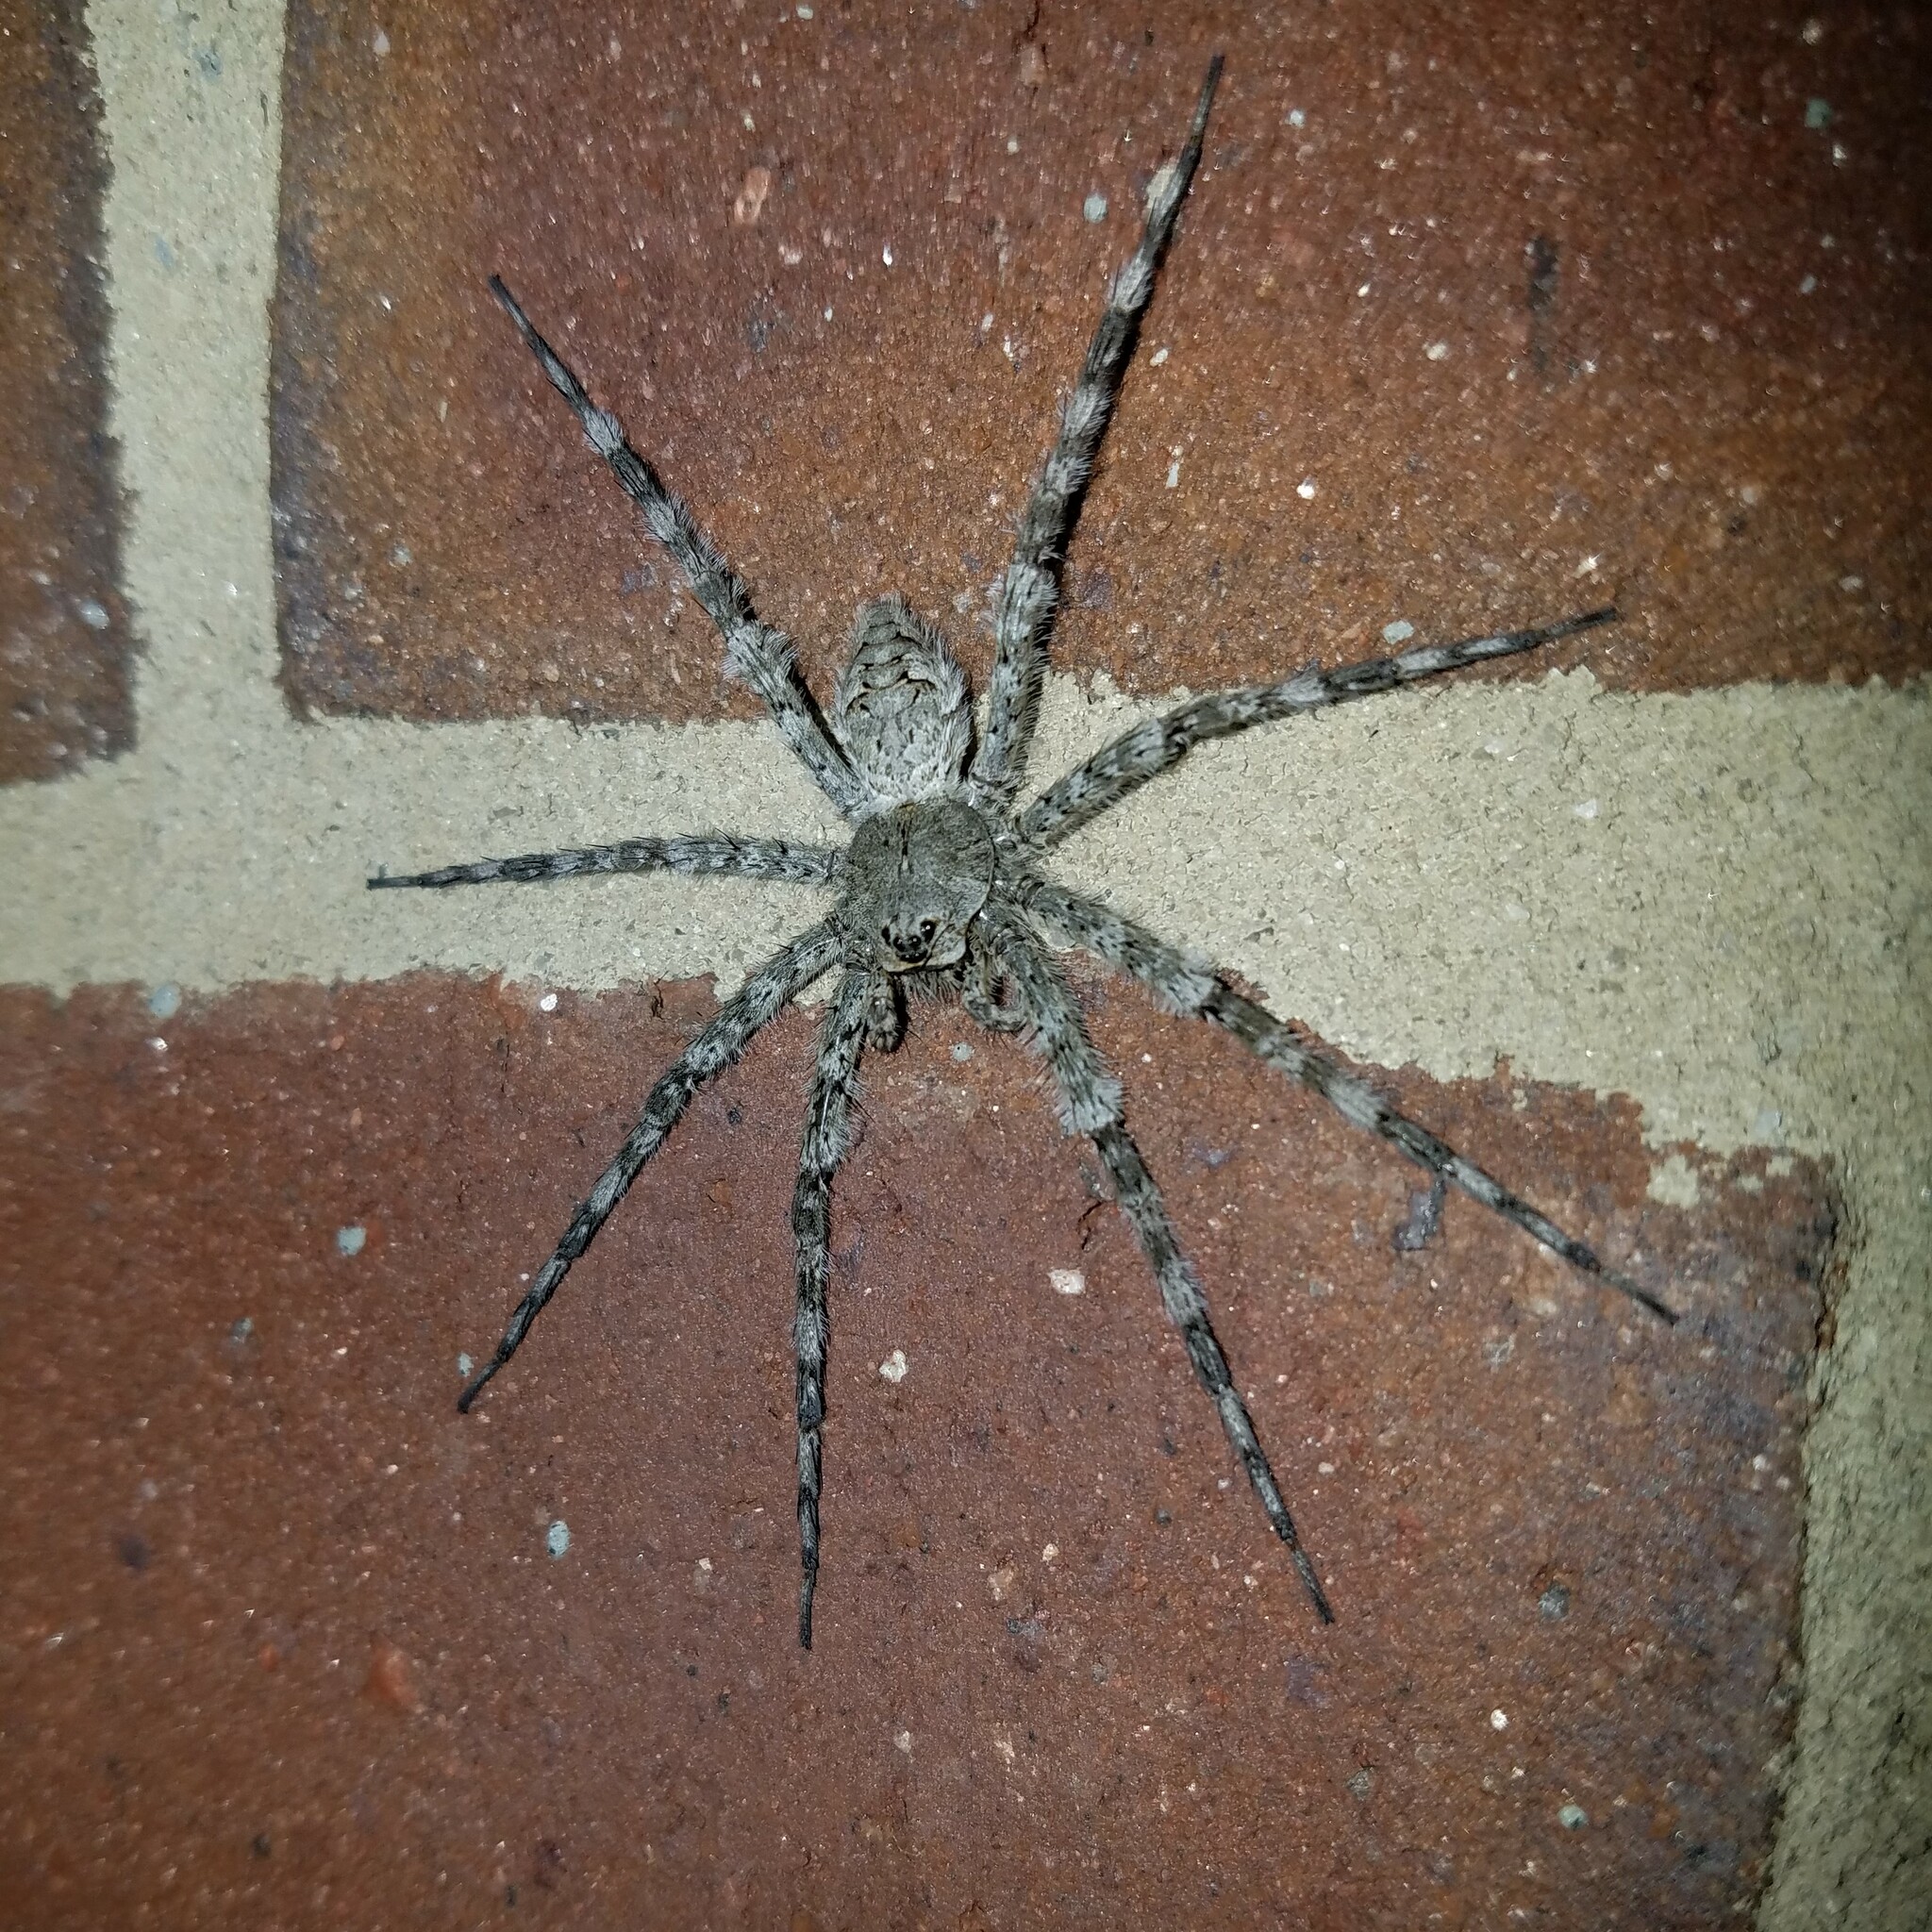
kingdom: Animalia
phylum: Arthropoda
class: Arachnida
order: Araneae
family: Pisauridae
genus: Dolomedes
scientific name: Dolomedes albineus
